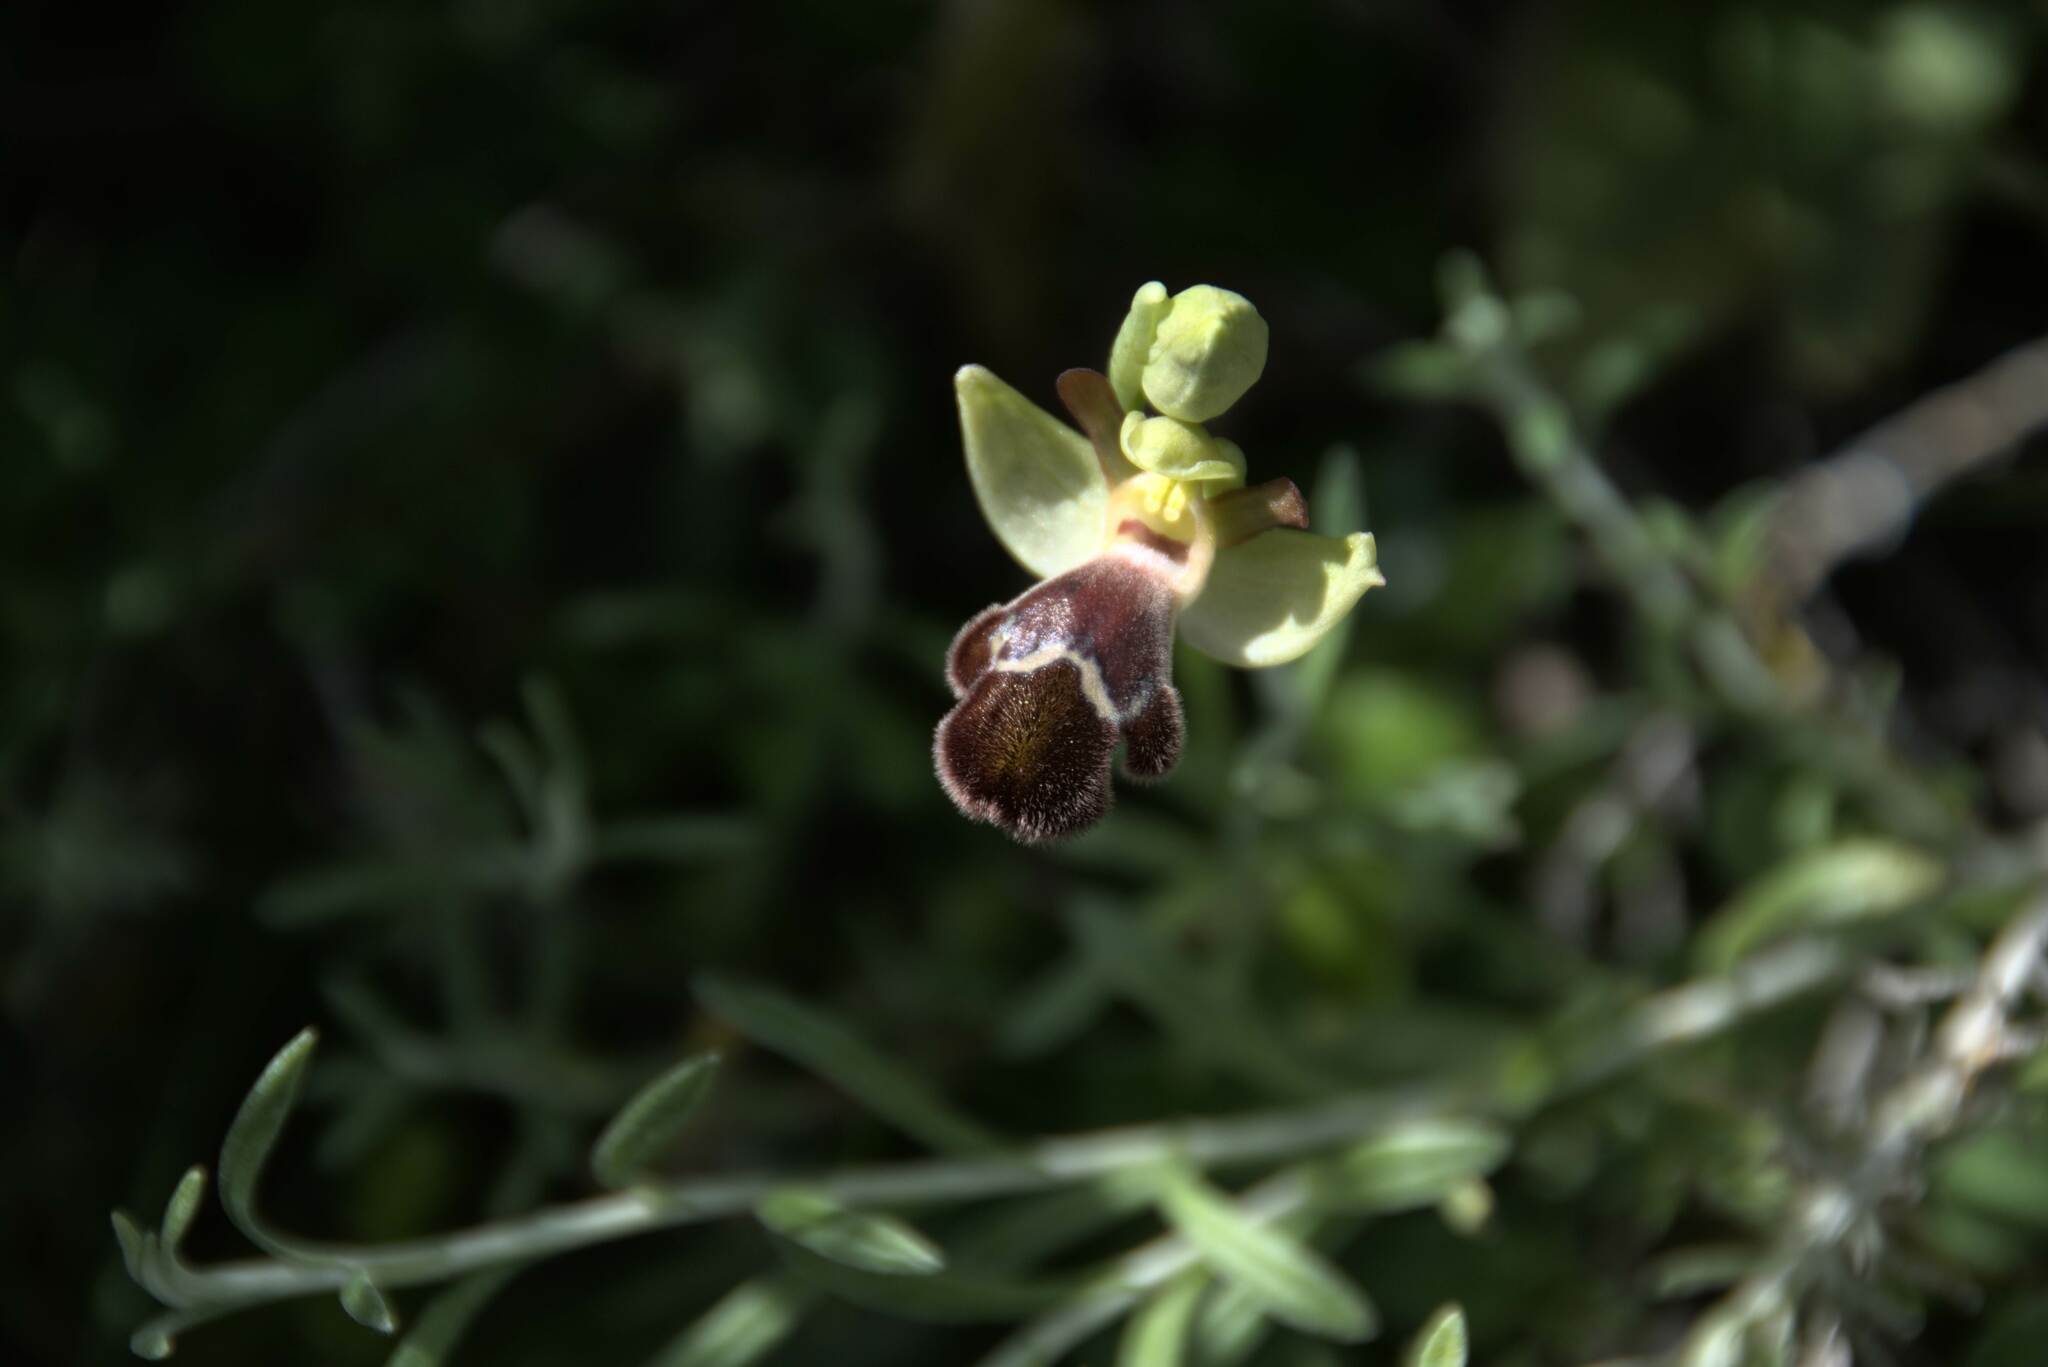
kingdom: Plantae
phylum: Tracheophyta
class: Liliopsida
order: Asparagales
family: Orchidaceae
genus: Ophrys
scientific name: Ophrys omegaifera
